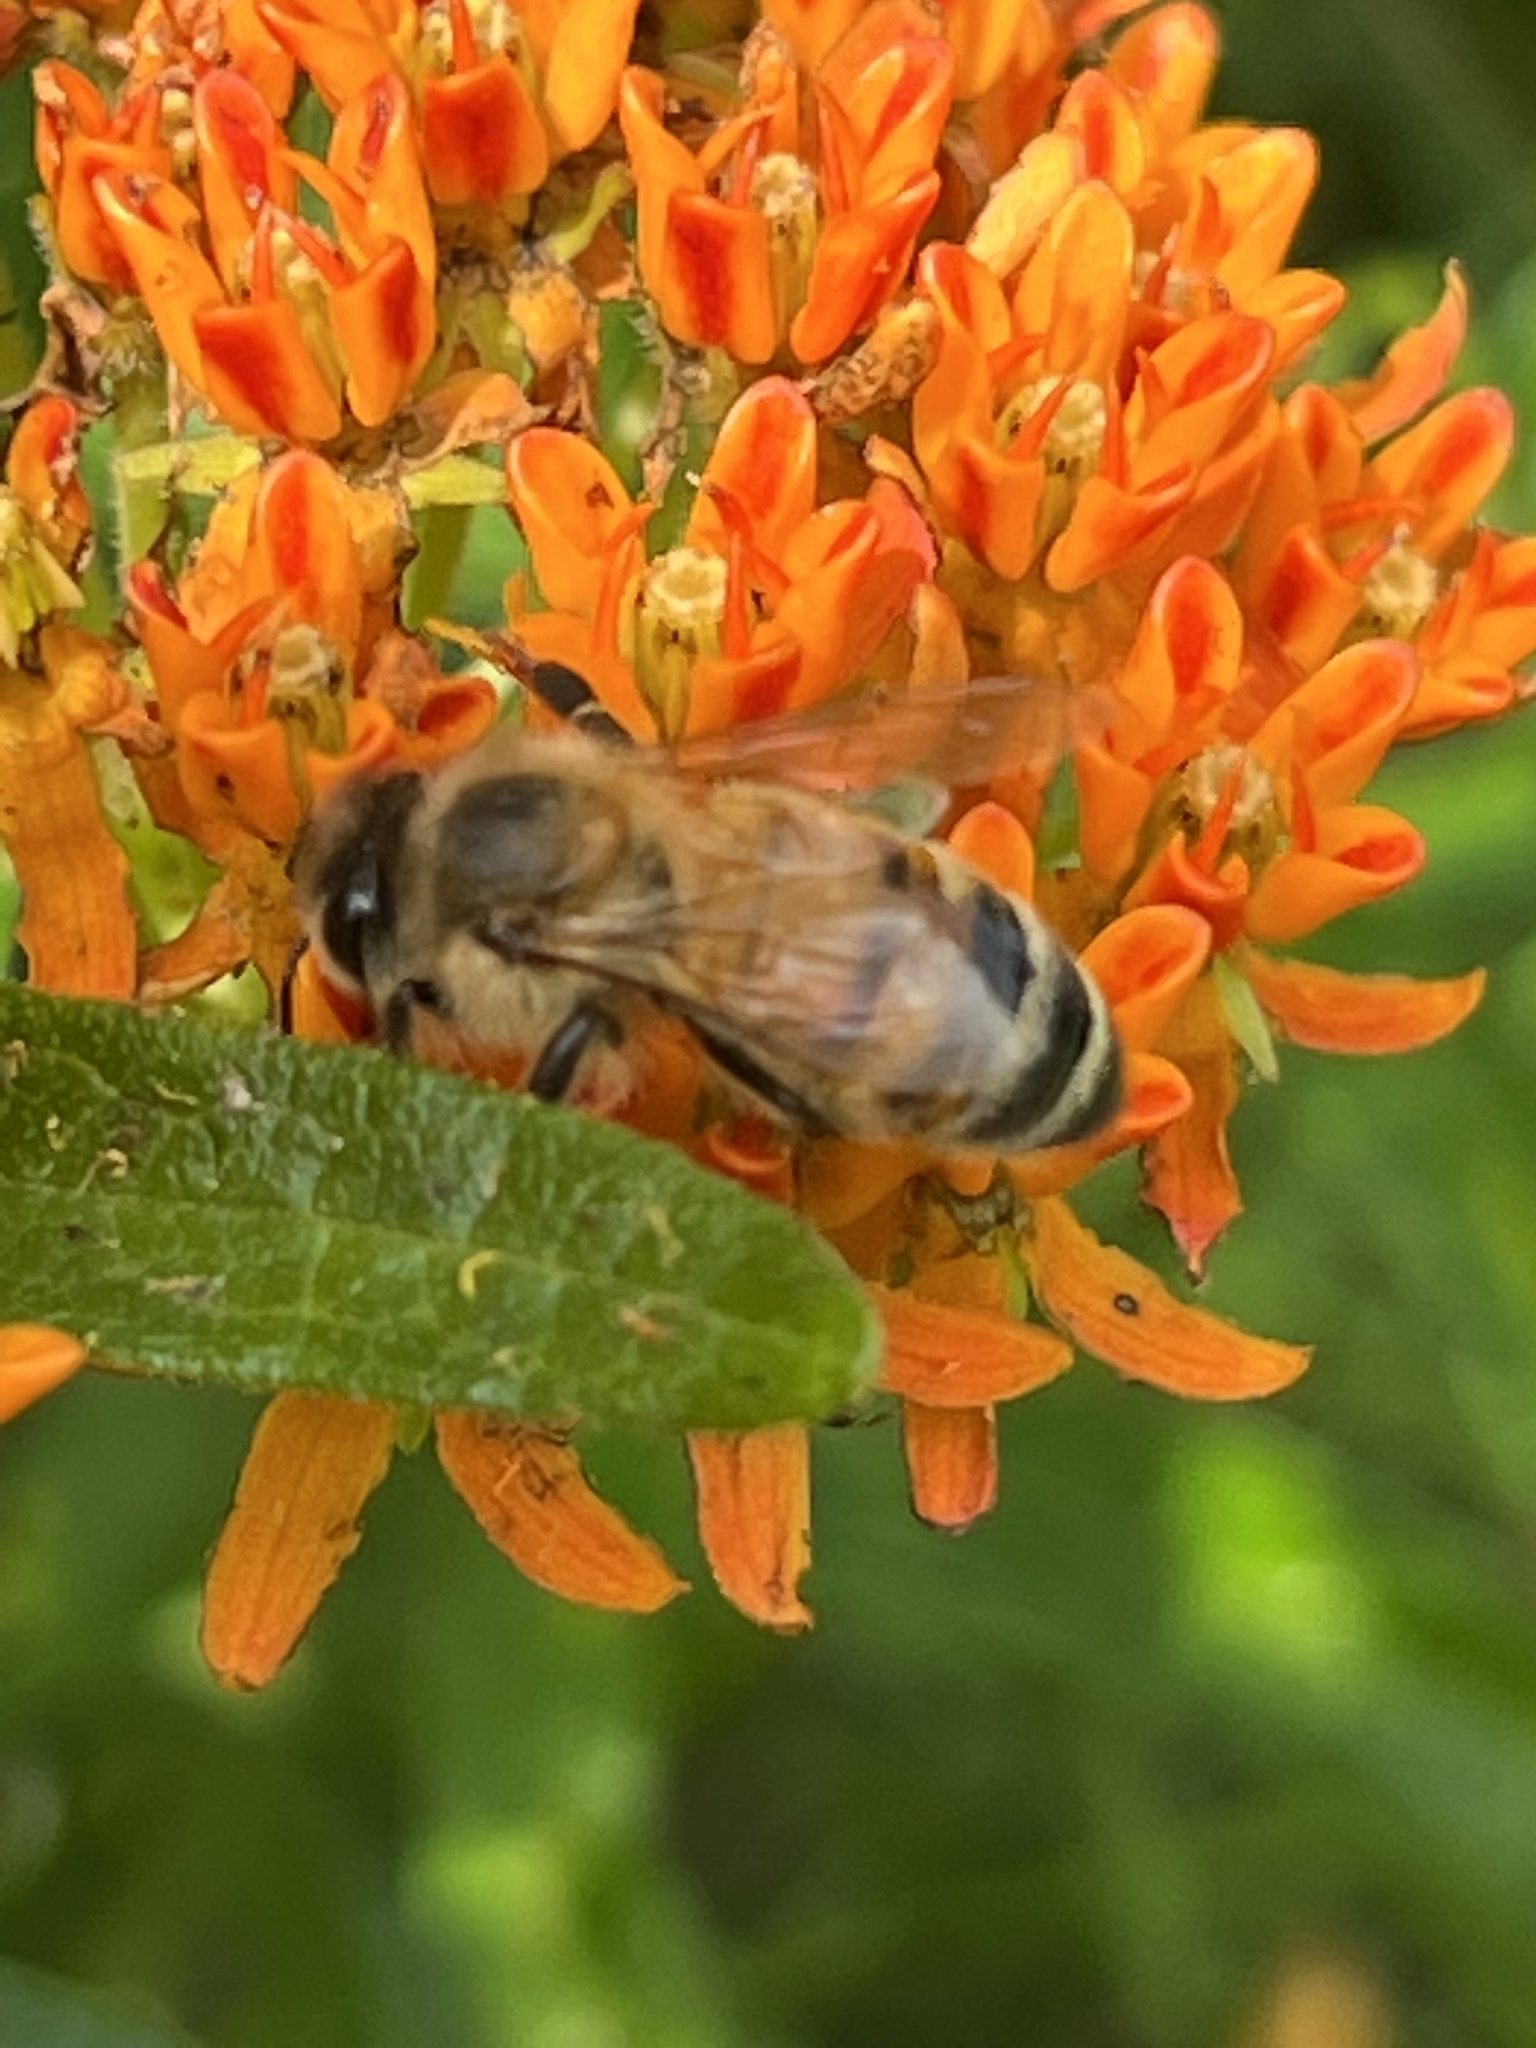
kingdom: Animalia
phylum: Arthropoda
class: Insecta
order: Hymenoptera
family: Apidae
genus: Apis
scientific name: Apis mellifera
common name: Honey bee
